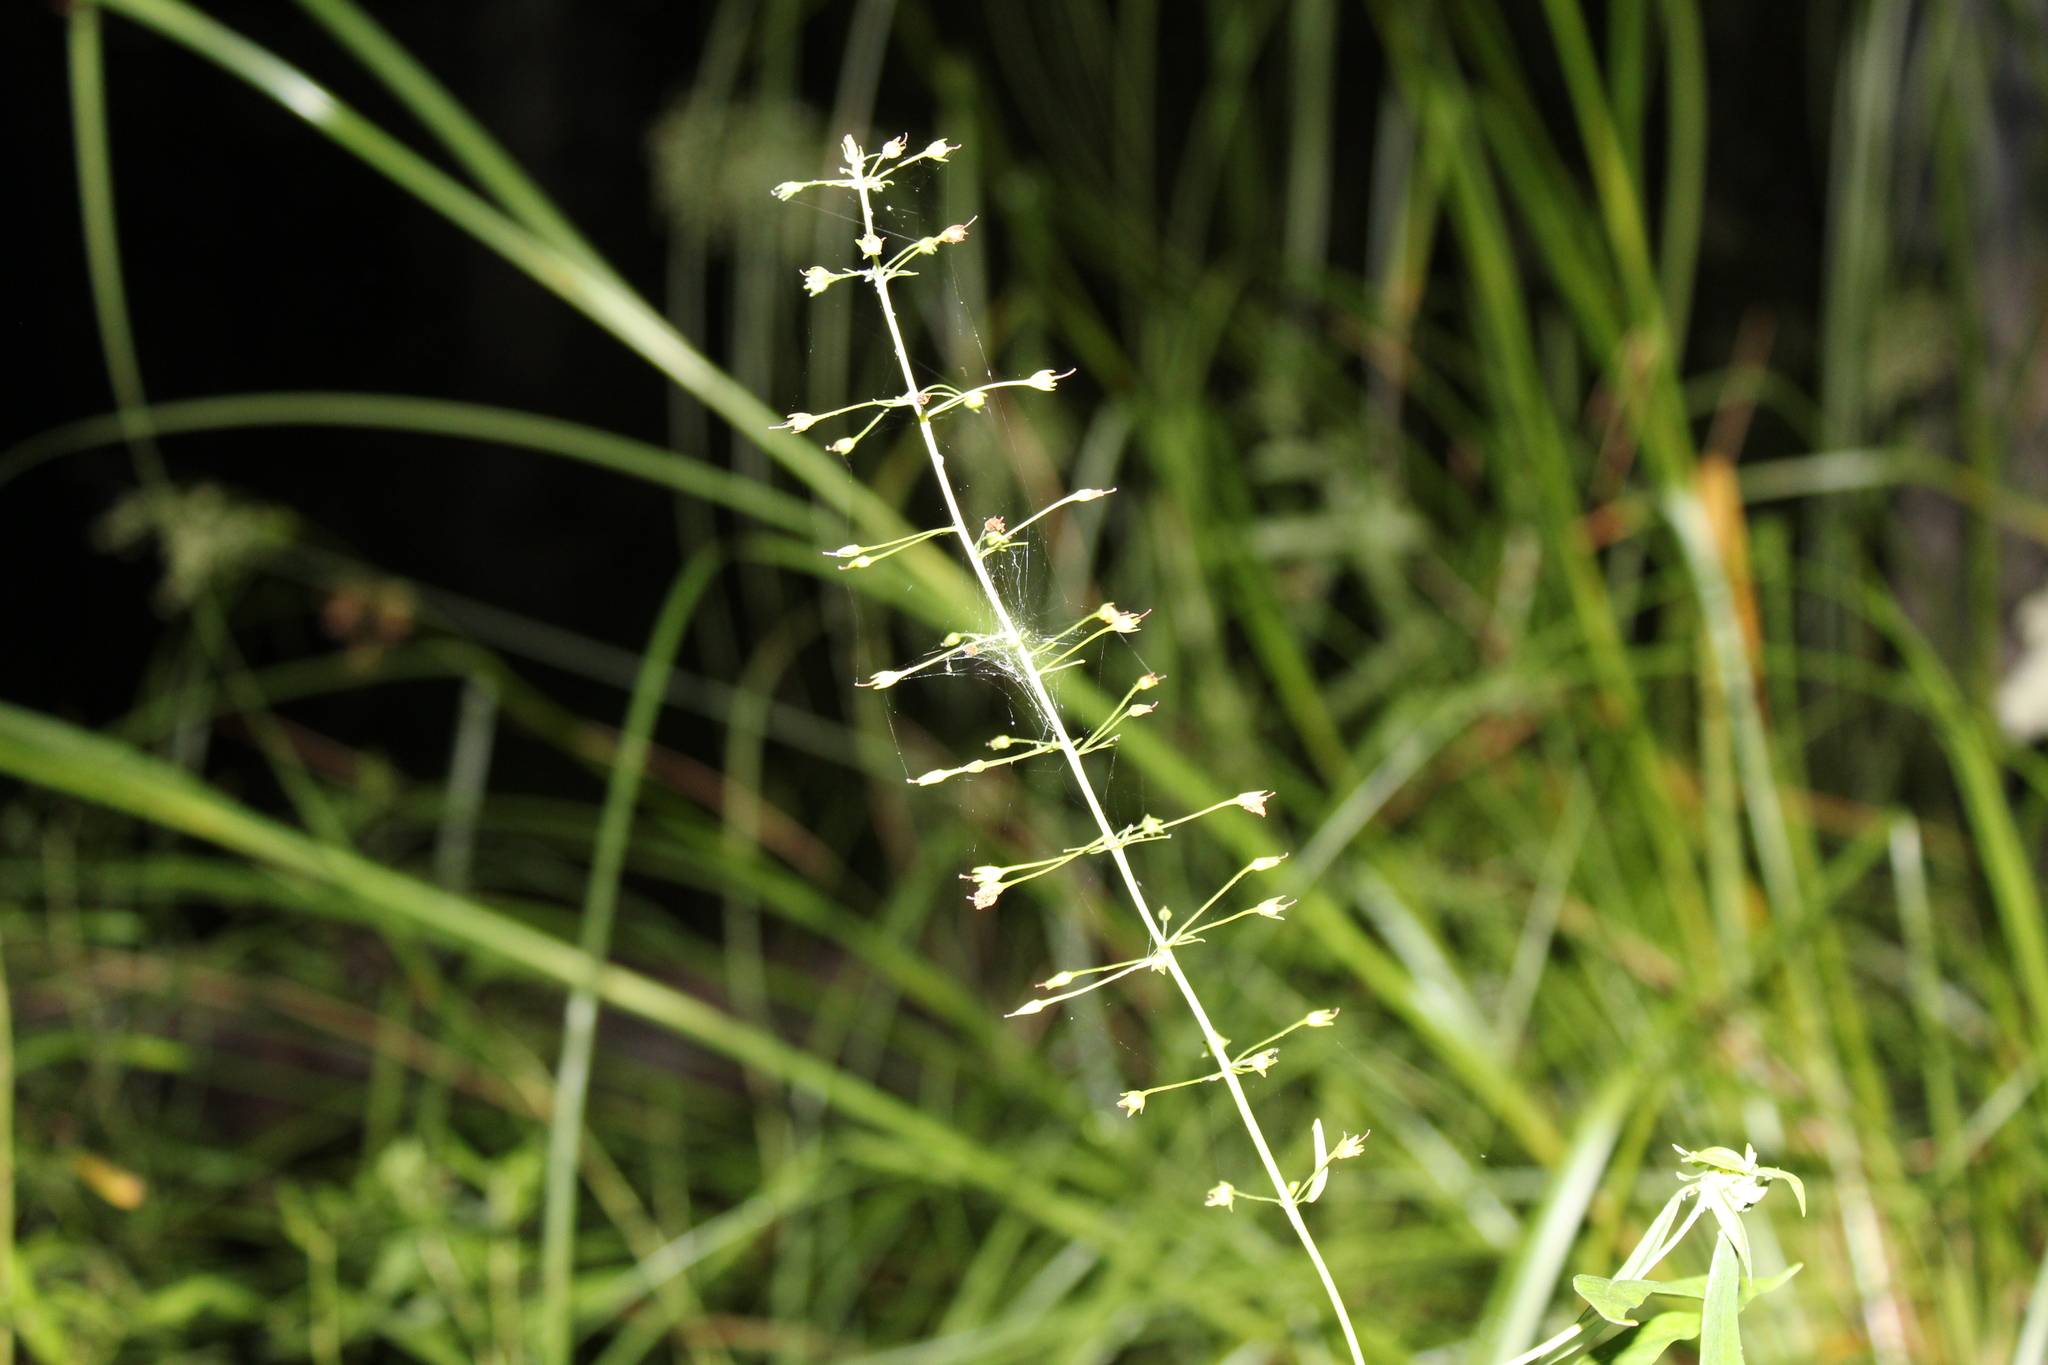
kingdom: Plantae
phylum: Tracheophyta
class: Magnoliopsida
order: Ericales
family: Primulaceae
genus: Lysimachia
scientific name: Lysimachia terrestris
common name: Lake loosestrife
